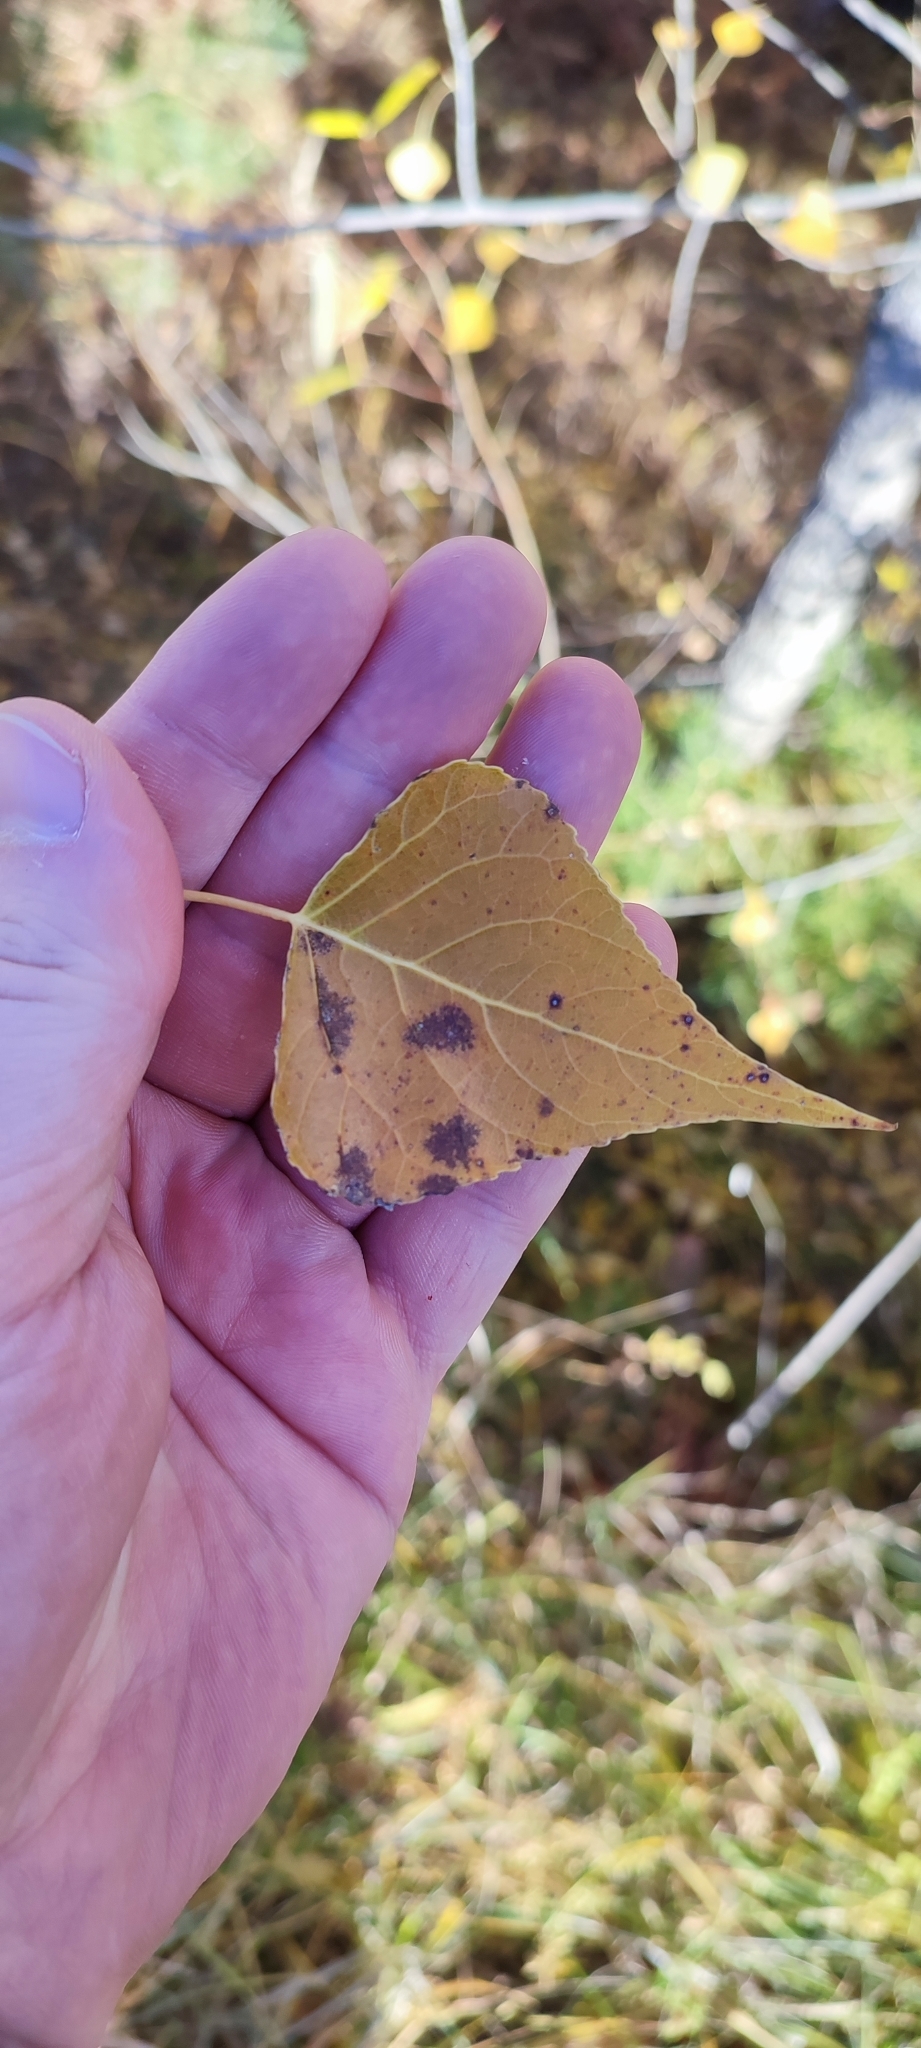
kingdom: Plantae
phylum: Tracheophyta
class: Magnoliopsida
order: Malpighiales
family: Salicaceae
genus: Populus
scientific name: Populus nigra
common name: Black poplar
